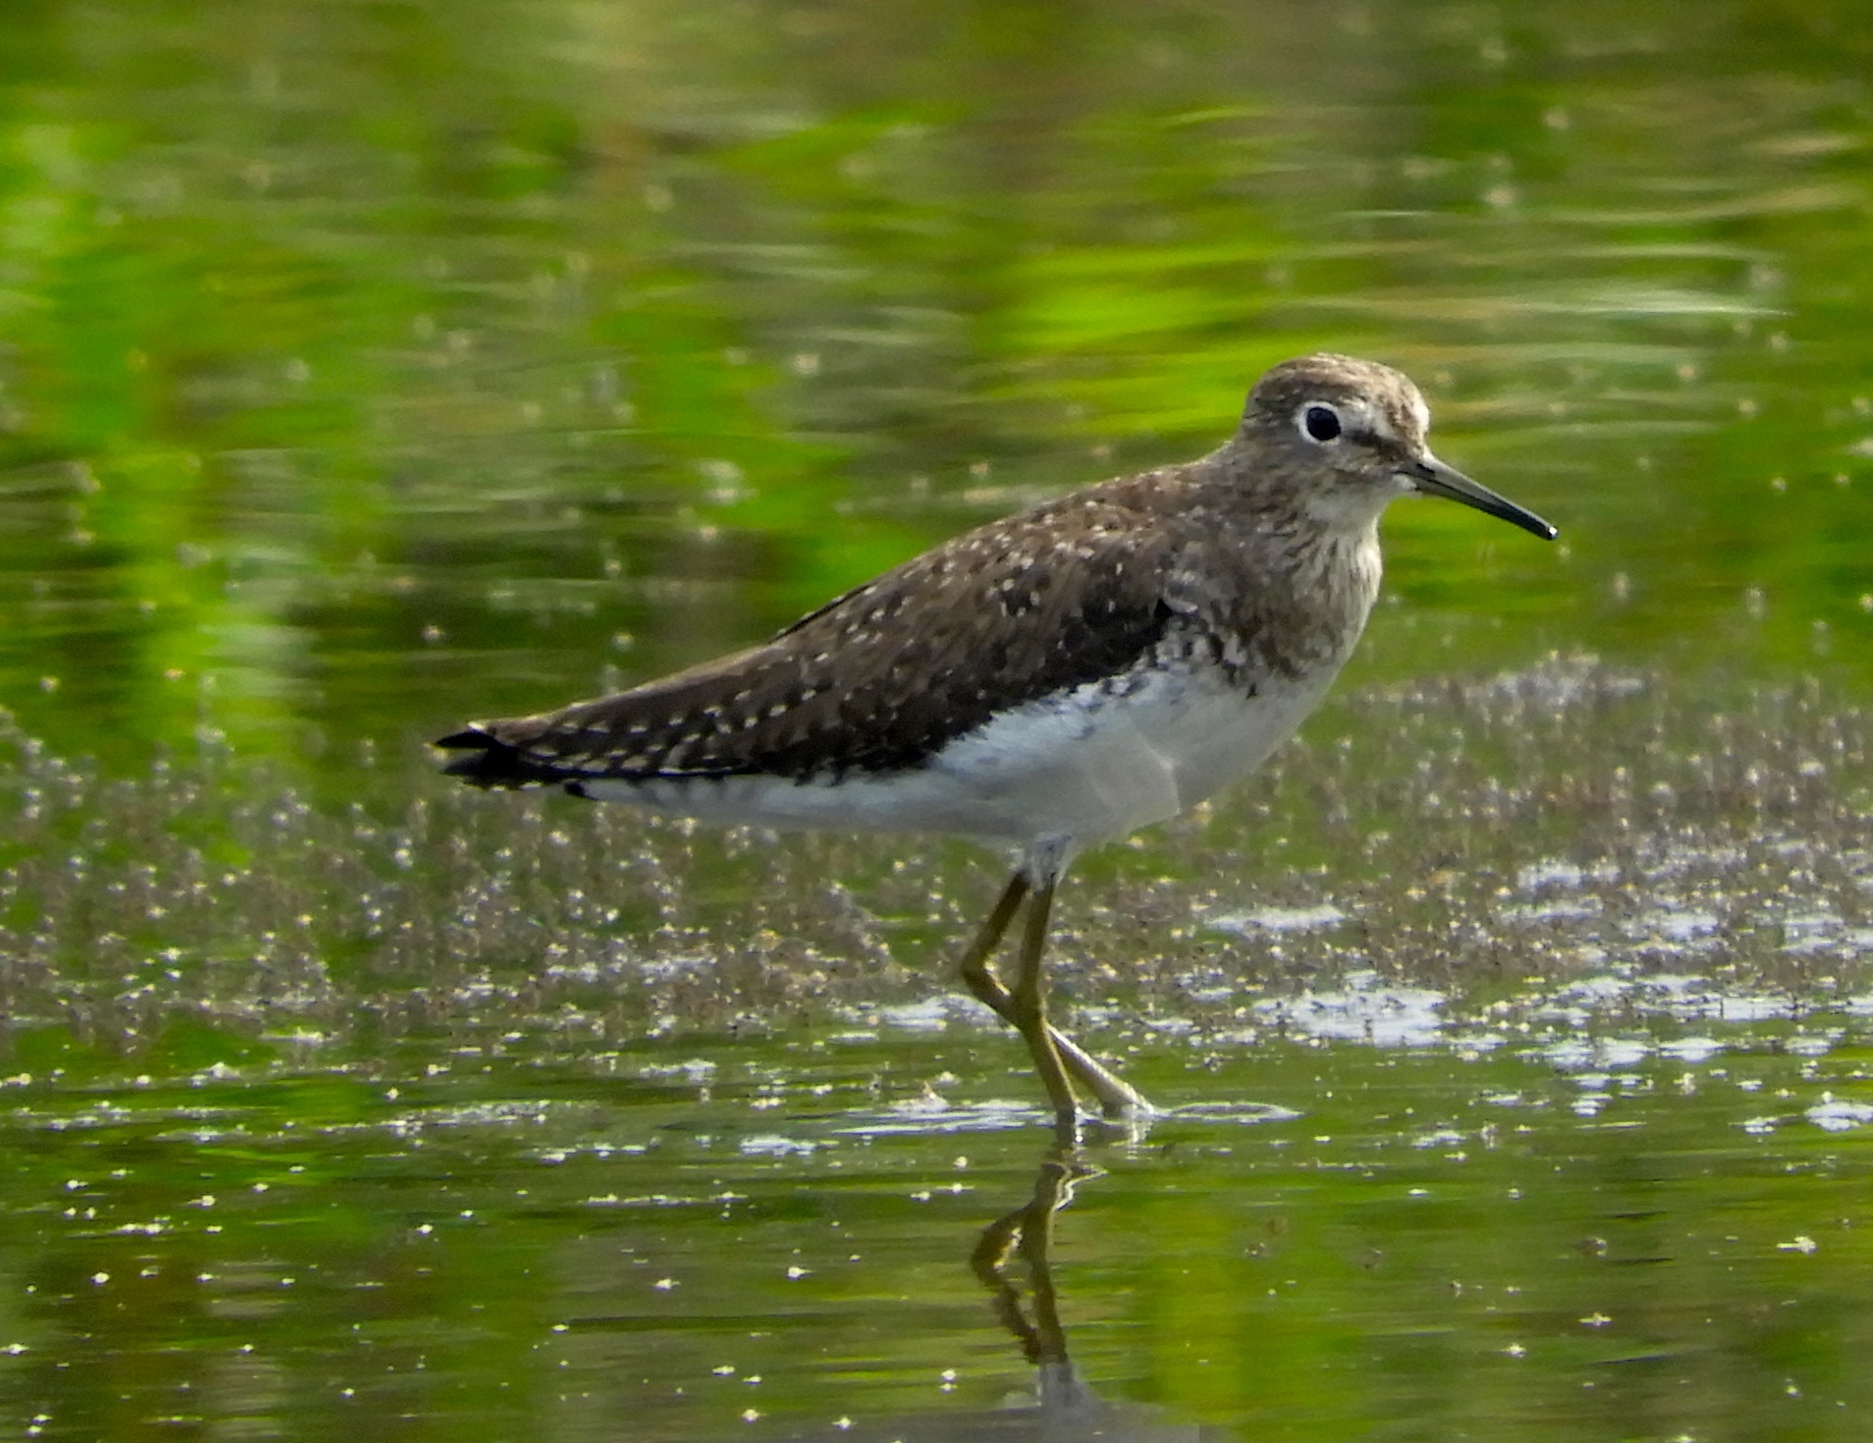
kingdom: Animalia
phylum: Chordata
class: Aves
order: Charadriiformes
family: Scolopacidae
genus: Tringa
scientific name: Tringa solitaria
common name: Solitary sandpiper
